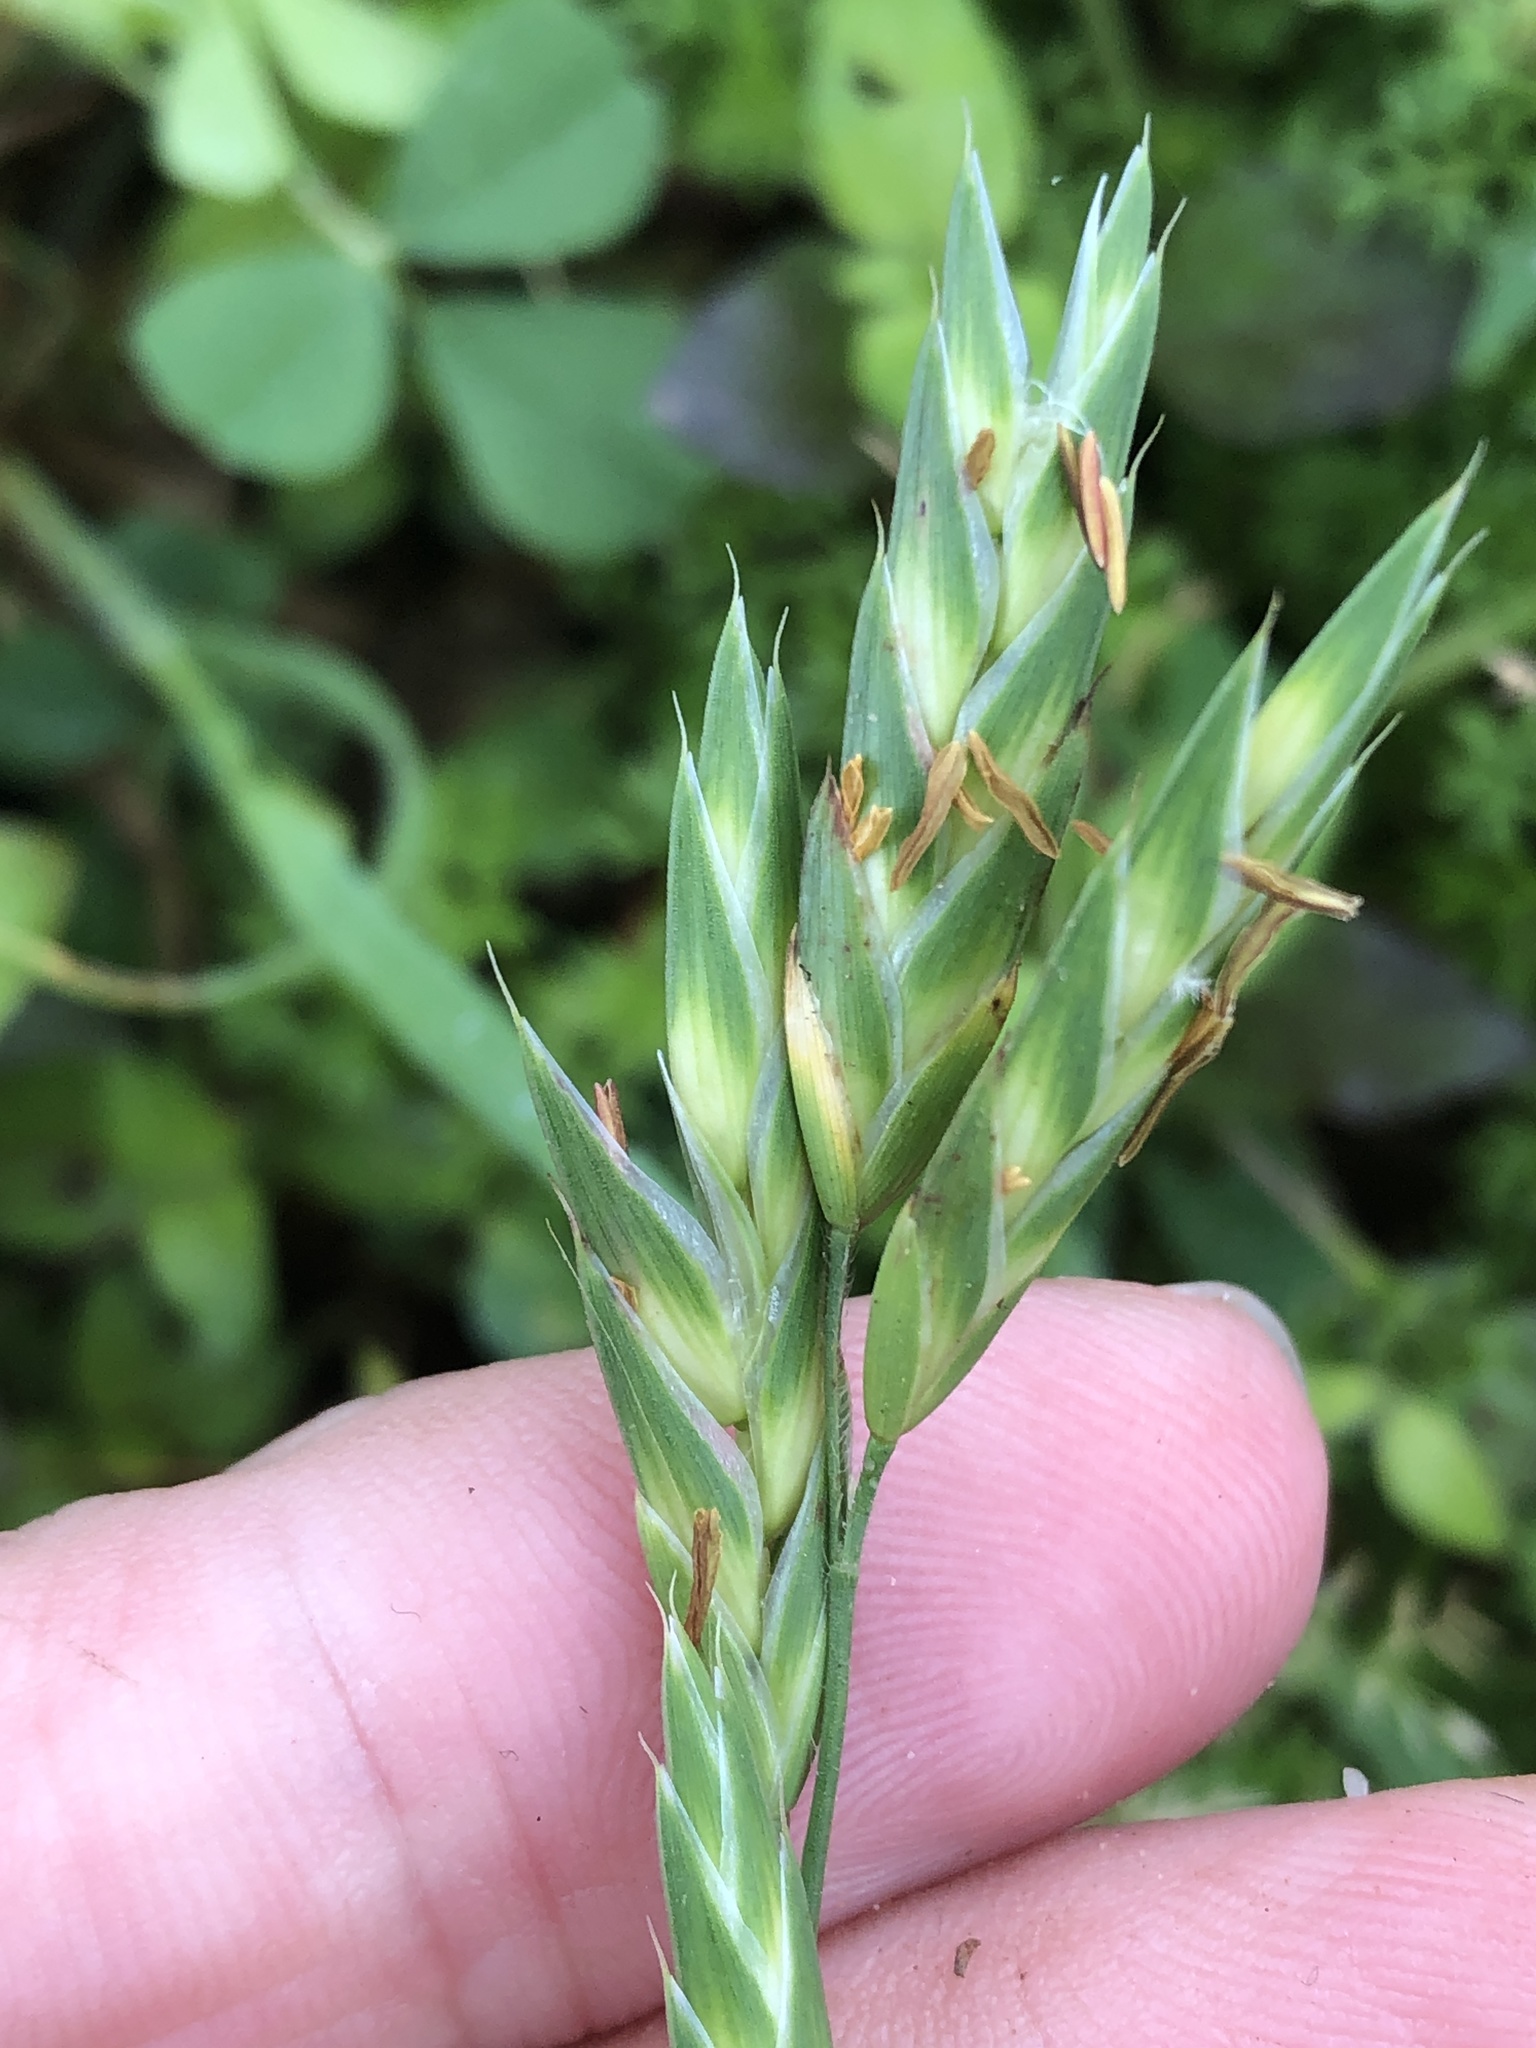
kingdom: Plantae
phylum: Tracheophyta
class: Liliopsida
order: Poales
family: Poaceae
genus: Bromus
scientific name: Bromus catharticus
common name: Rescuegrass
